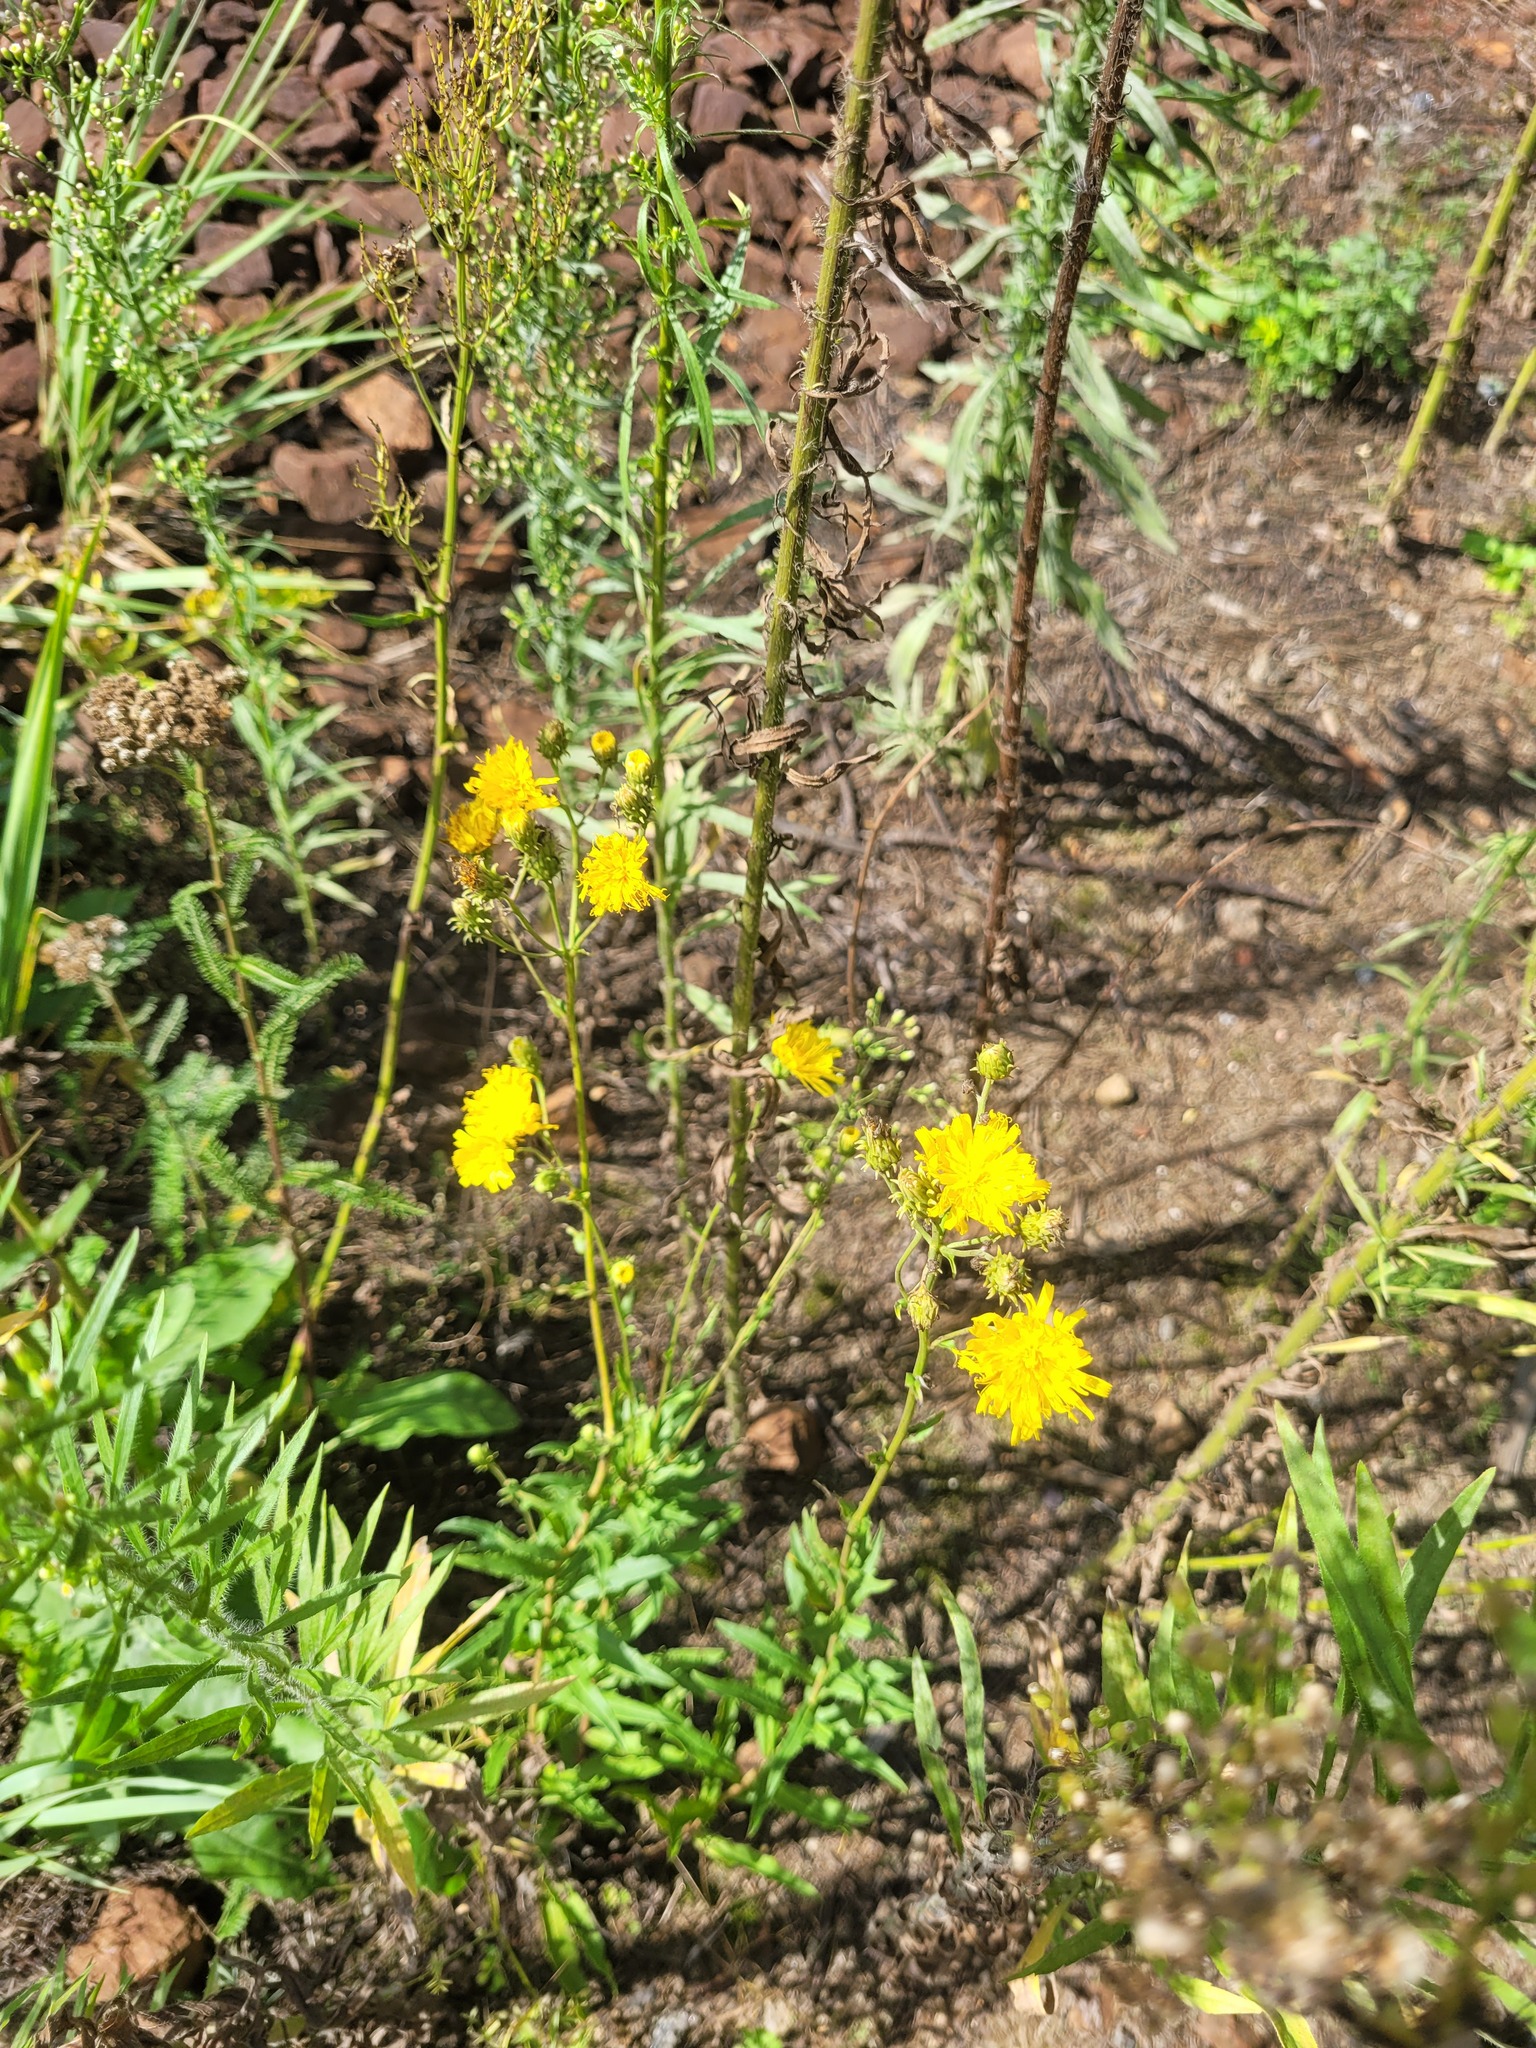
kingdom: Plantae
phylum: Tracheophyta
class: Magnoliopsida
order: Asterales
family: Asteraceae
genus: Hieracium
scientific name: Hieracium umbellatum
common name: Northern hawkweed
